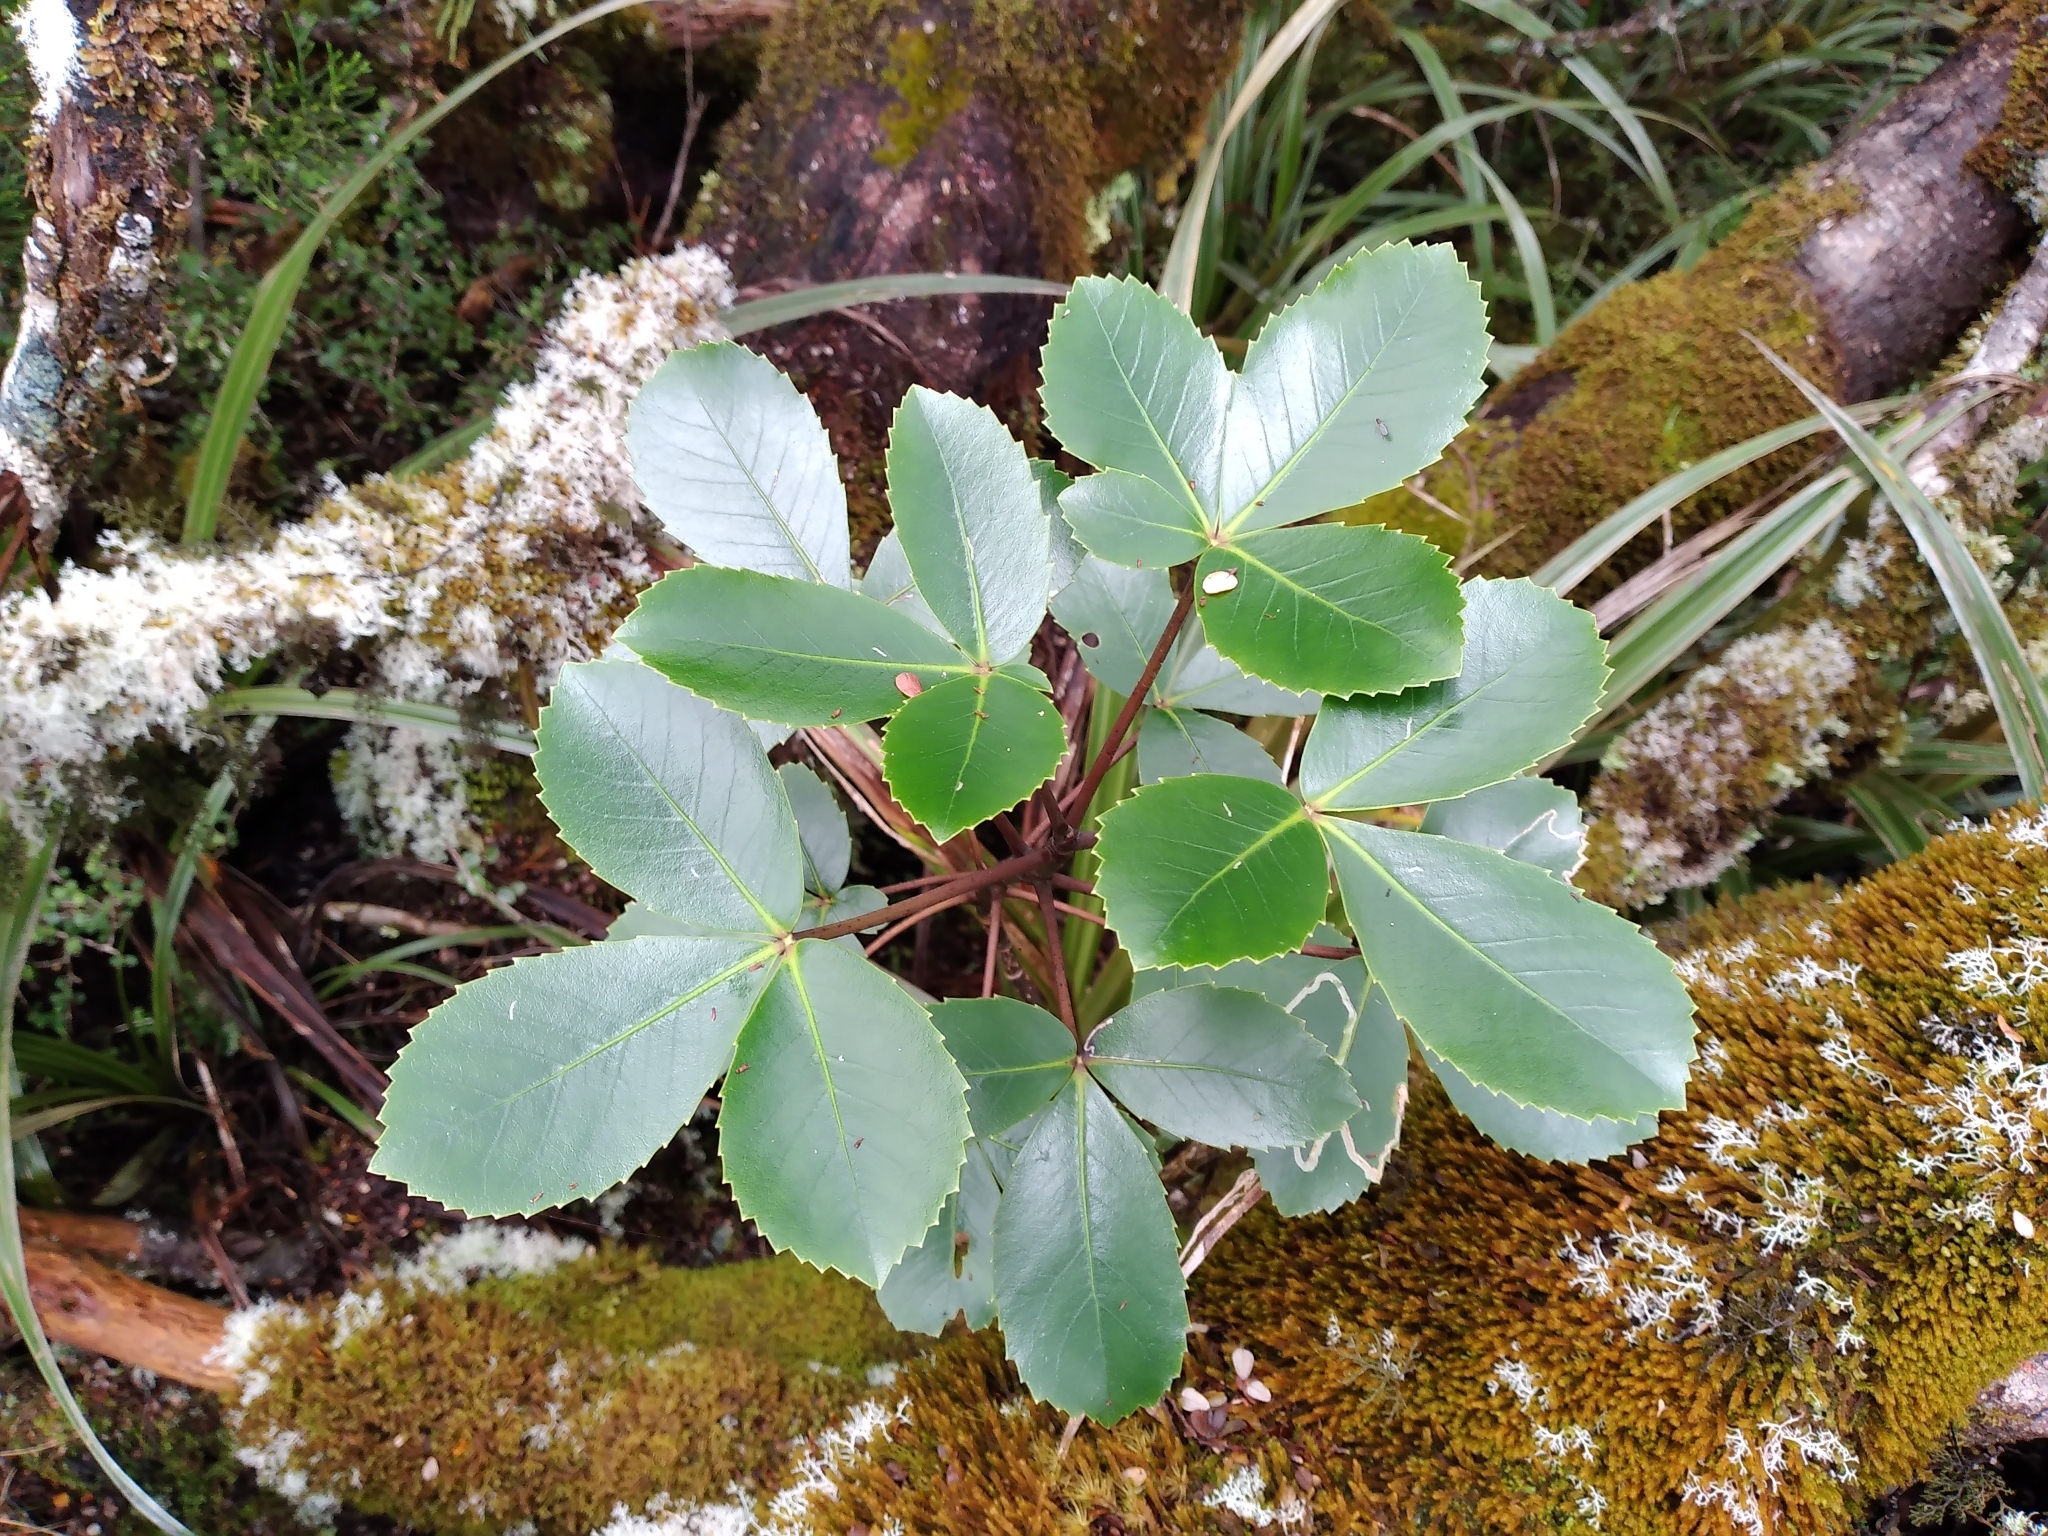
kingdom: Plantae
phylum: Tracheophyta
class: Magnoliopsida
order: Apiales
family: Araliaceae
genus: Neopanax
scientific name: Neopanax colensoi
